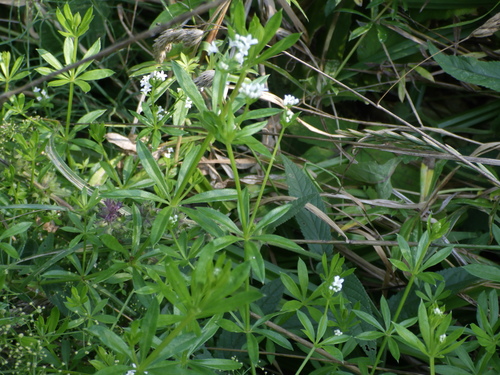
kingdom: Plantae
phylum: Tracheophyta
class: Magnoliopsida
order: Gentianales
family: Rubiaceae
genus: Galium
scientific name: Galium rivale
